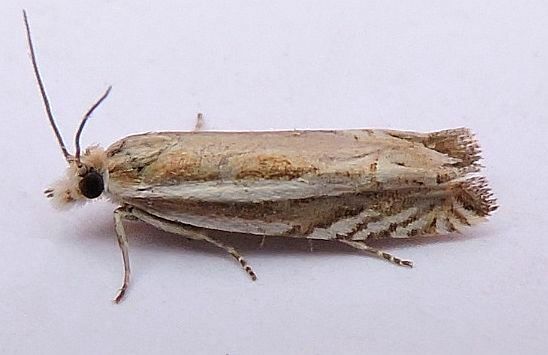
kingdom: Animalia
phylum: Arthropoda
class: Insecta
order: Lepidoptera
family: Tortricidae
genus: Eucosma
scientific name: Eucosma striatana
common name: Striated eucosma moth
